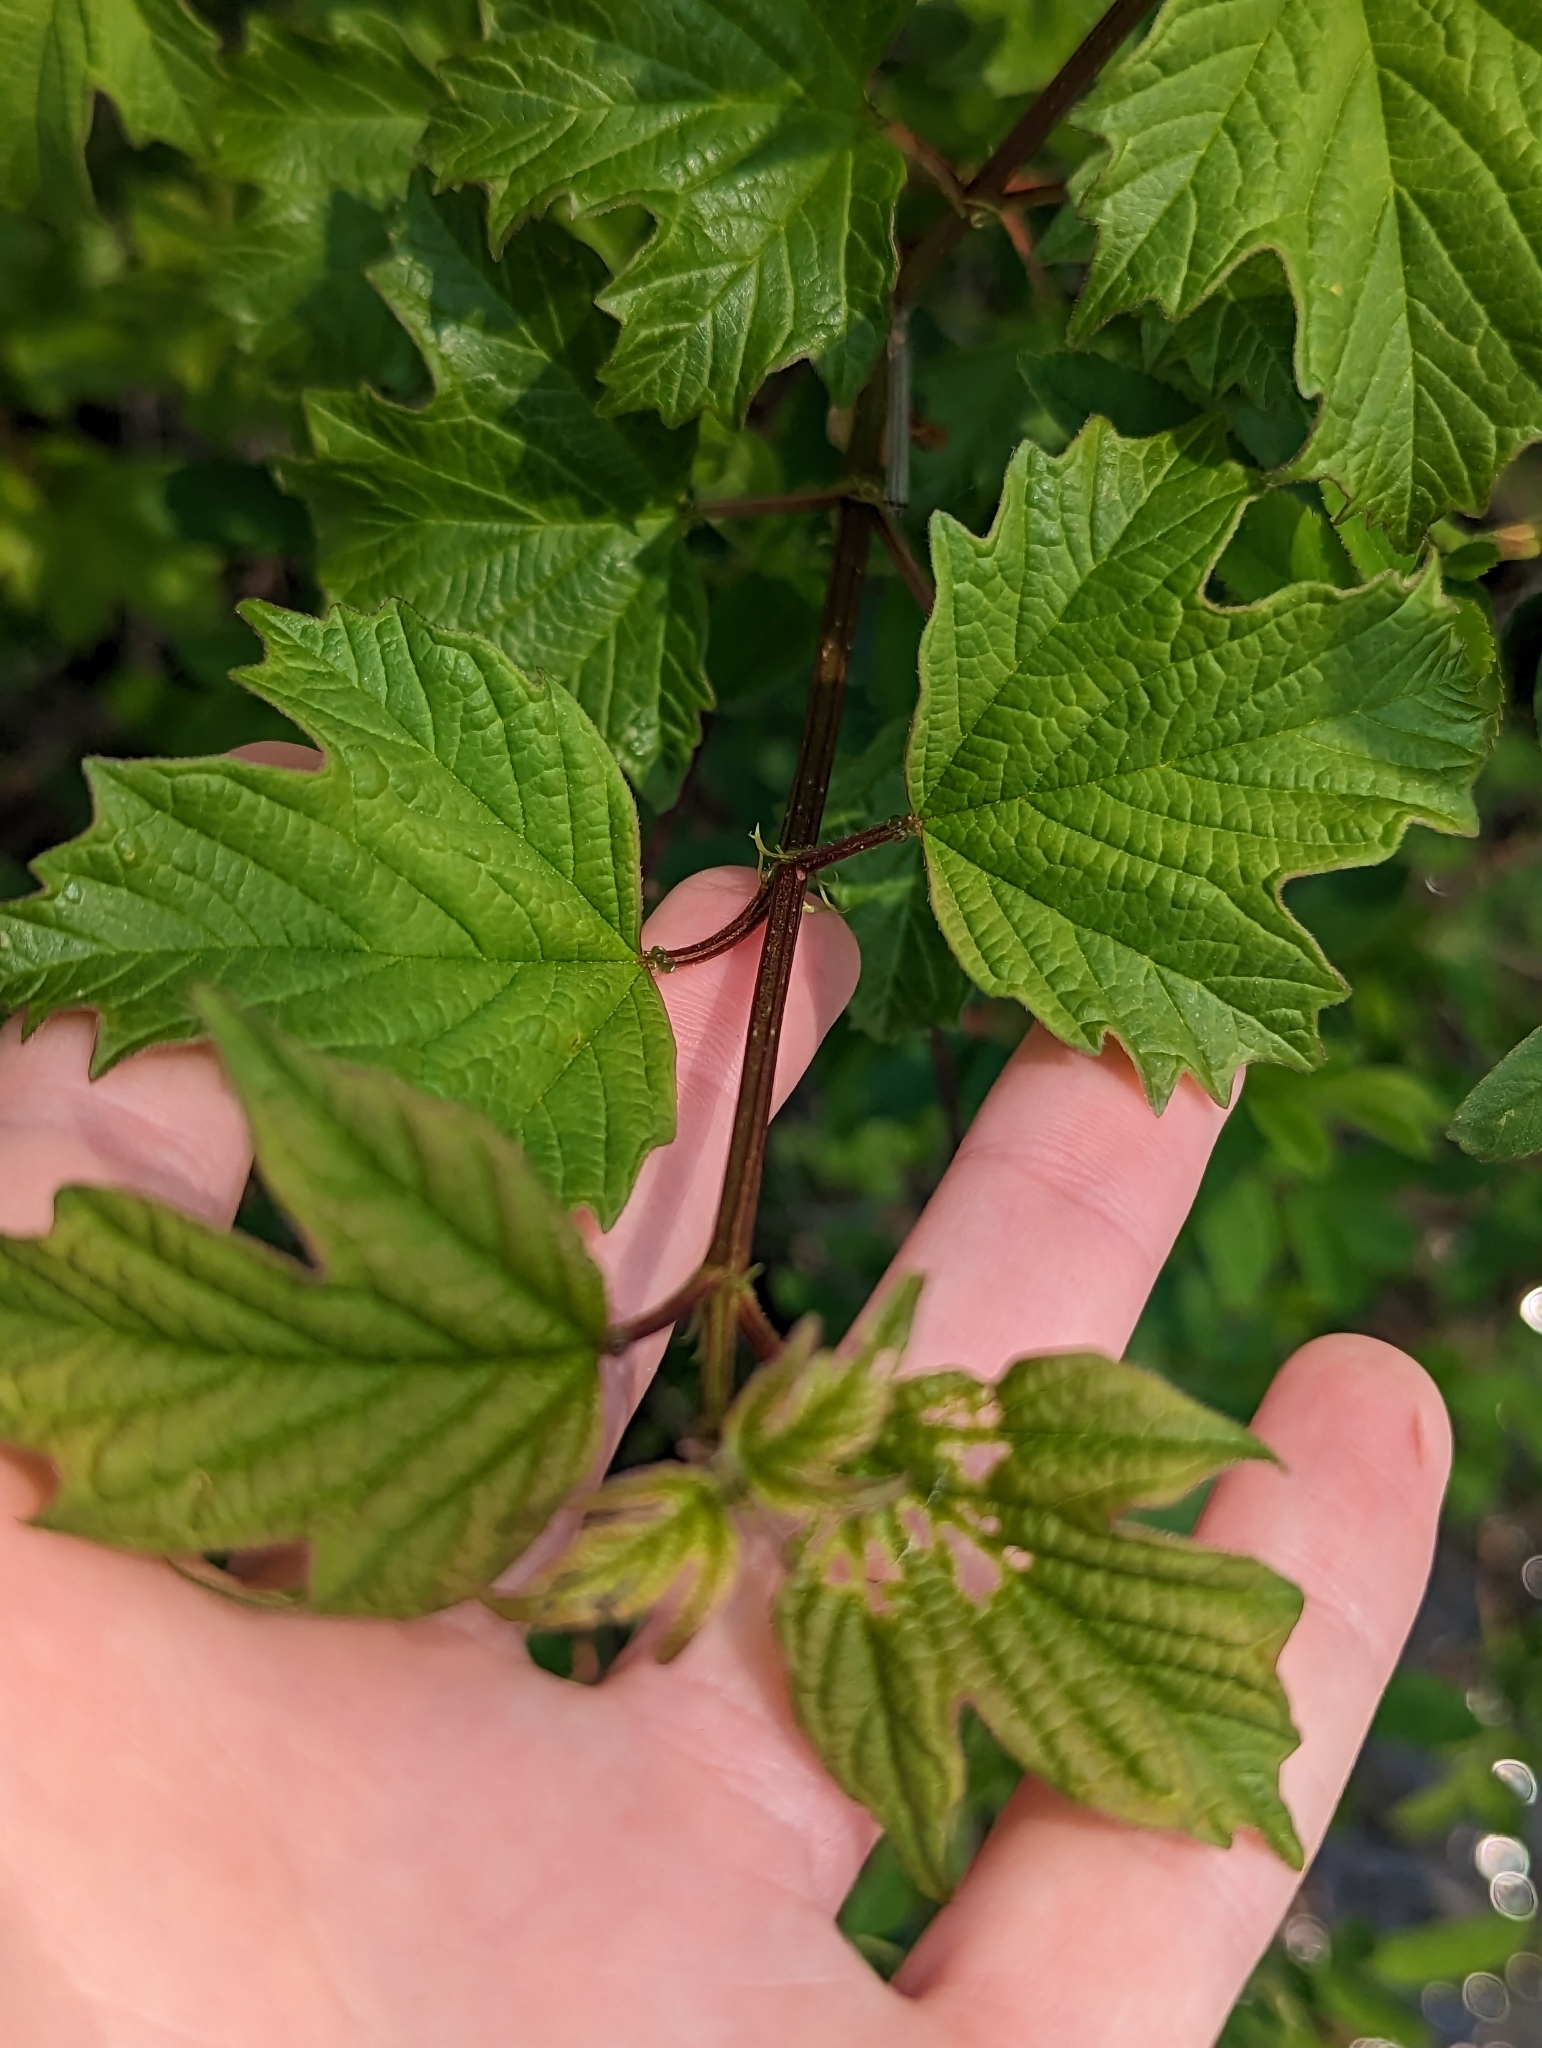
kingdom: Plantae
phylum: Tracheophyta
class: Magnoliopsida
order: Dipsacales
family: Viburnaceae
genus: Viburnum
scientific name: Viburnum opulus
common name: Guelder-rose
